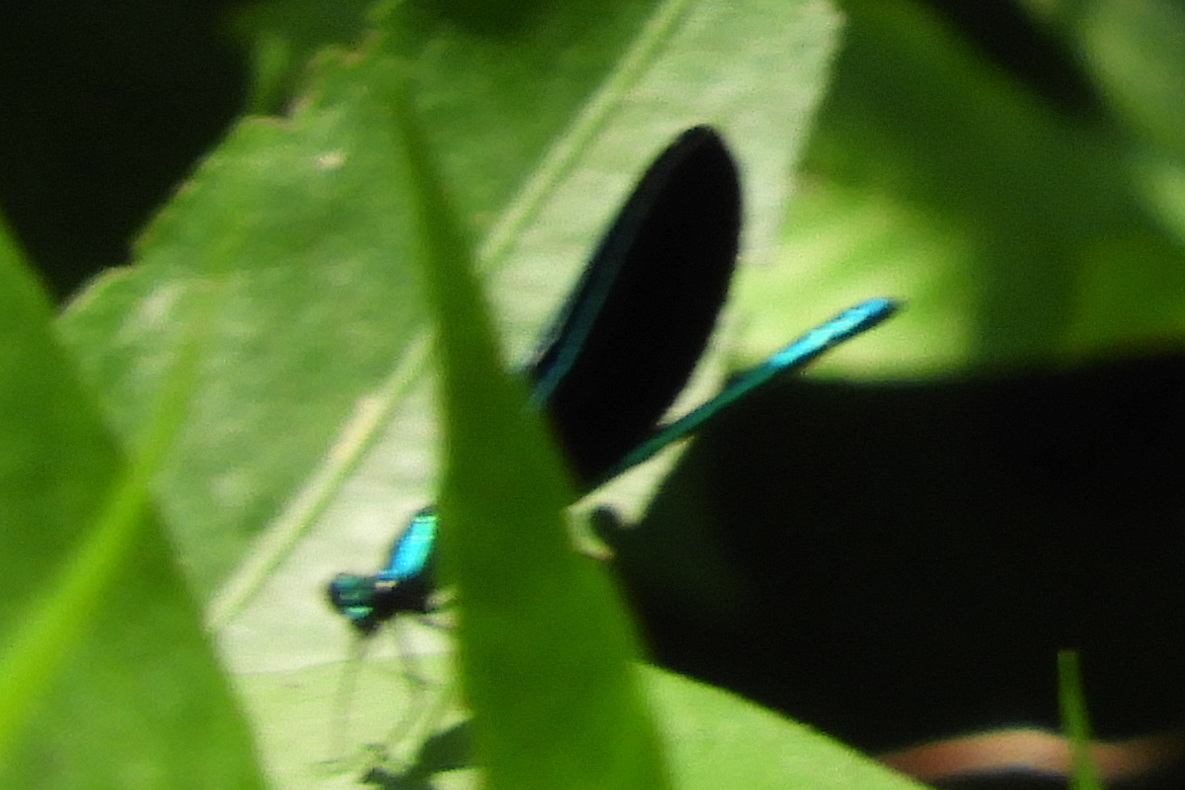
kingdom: Animalia
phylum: Arthropoda
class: Insecta
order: Odonata
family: Calopterygidae
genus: Calopteryx
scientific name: Calopteryx maculata
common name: Ebony jewelwing
